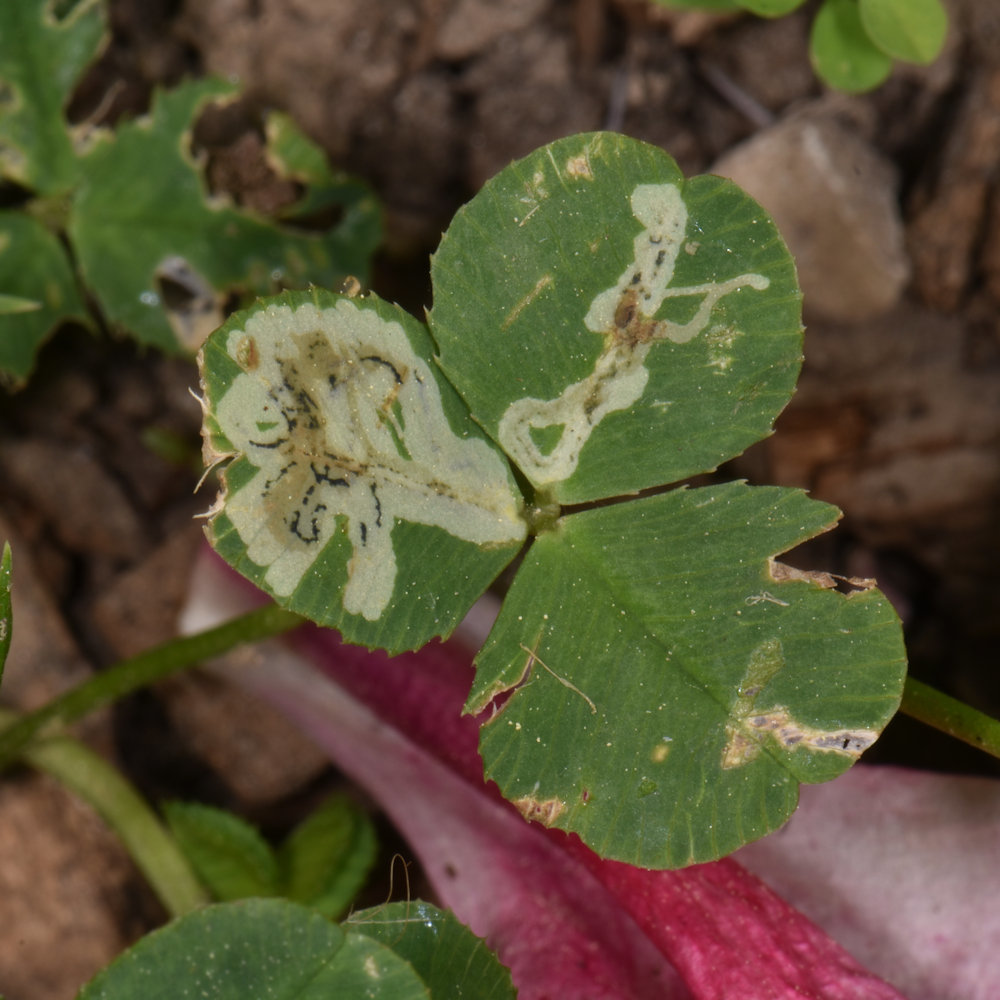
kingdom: Animalia
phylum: Arthropoda
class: Insecta
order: Diptera
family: Agromyzidae
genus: Liriomyza
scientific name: Liriomyza fricki
